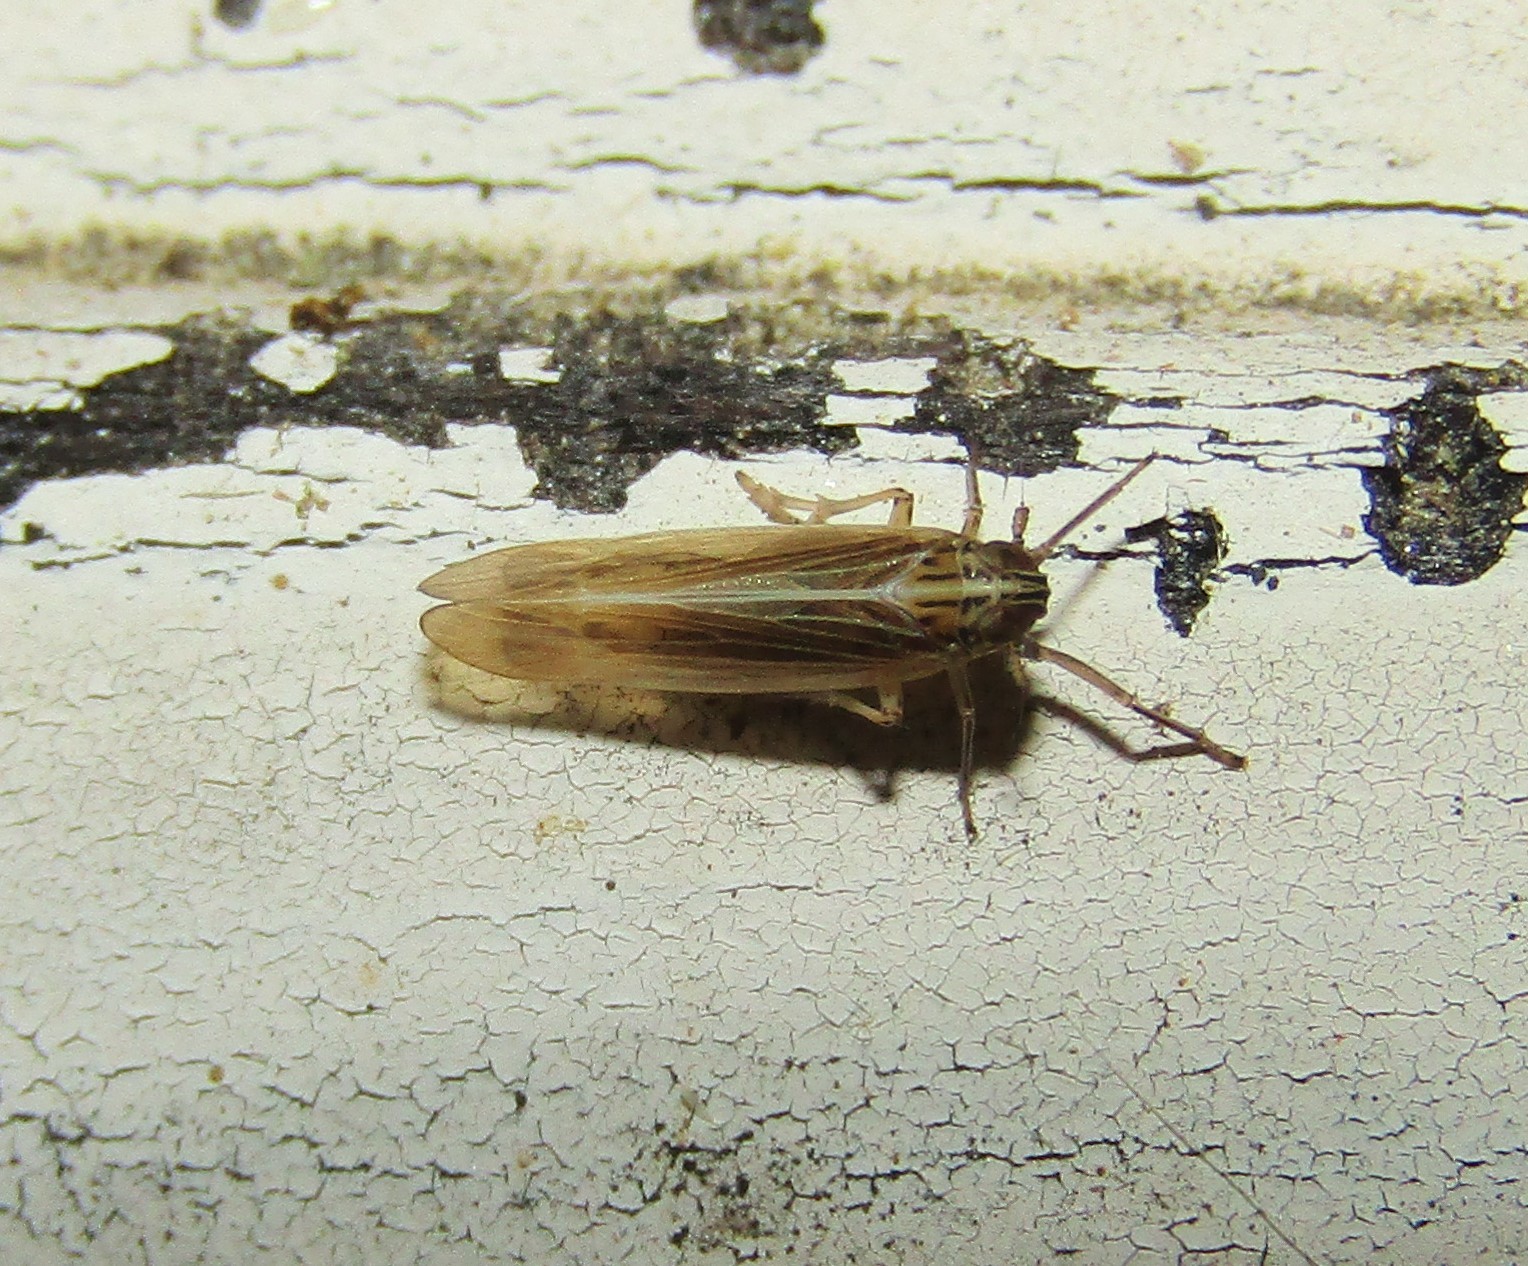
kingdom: Animalia
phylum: Arthropoda
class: Insecta
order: Hemiptera
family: Delphacidae
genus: Nothodelphax
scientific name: Nothodelphax slossonae
